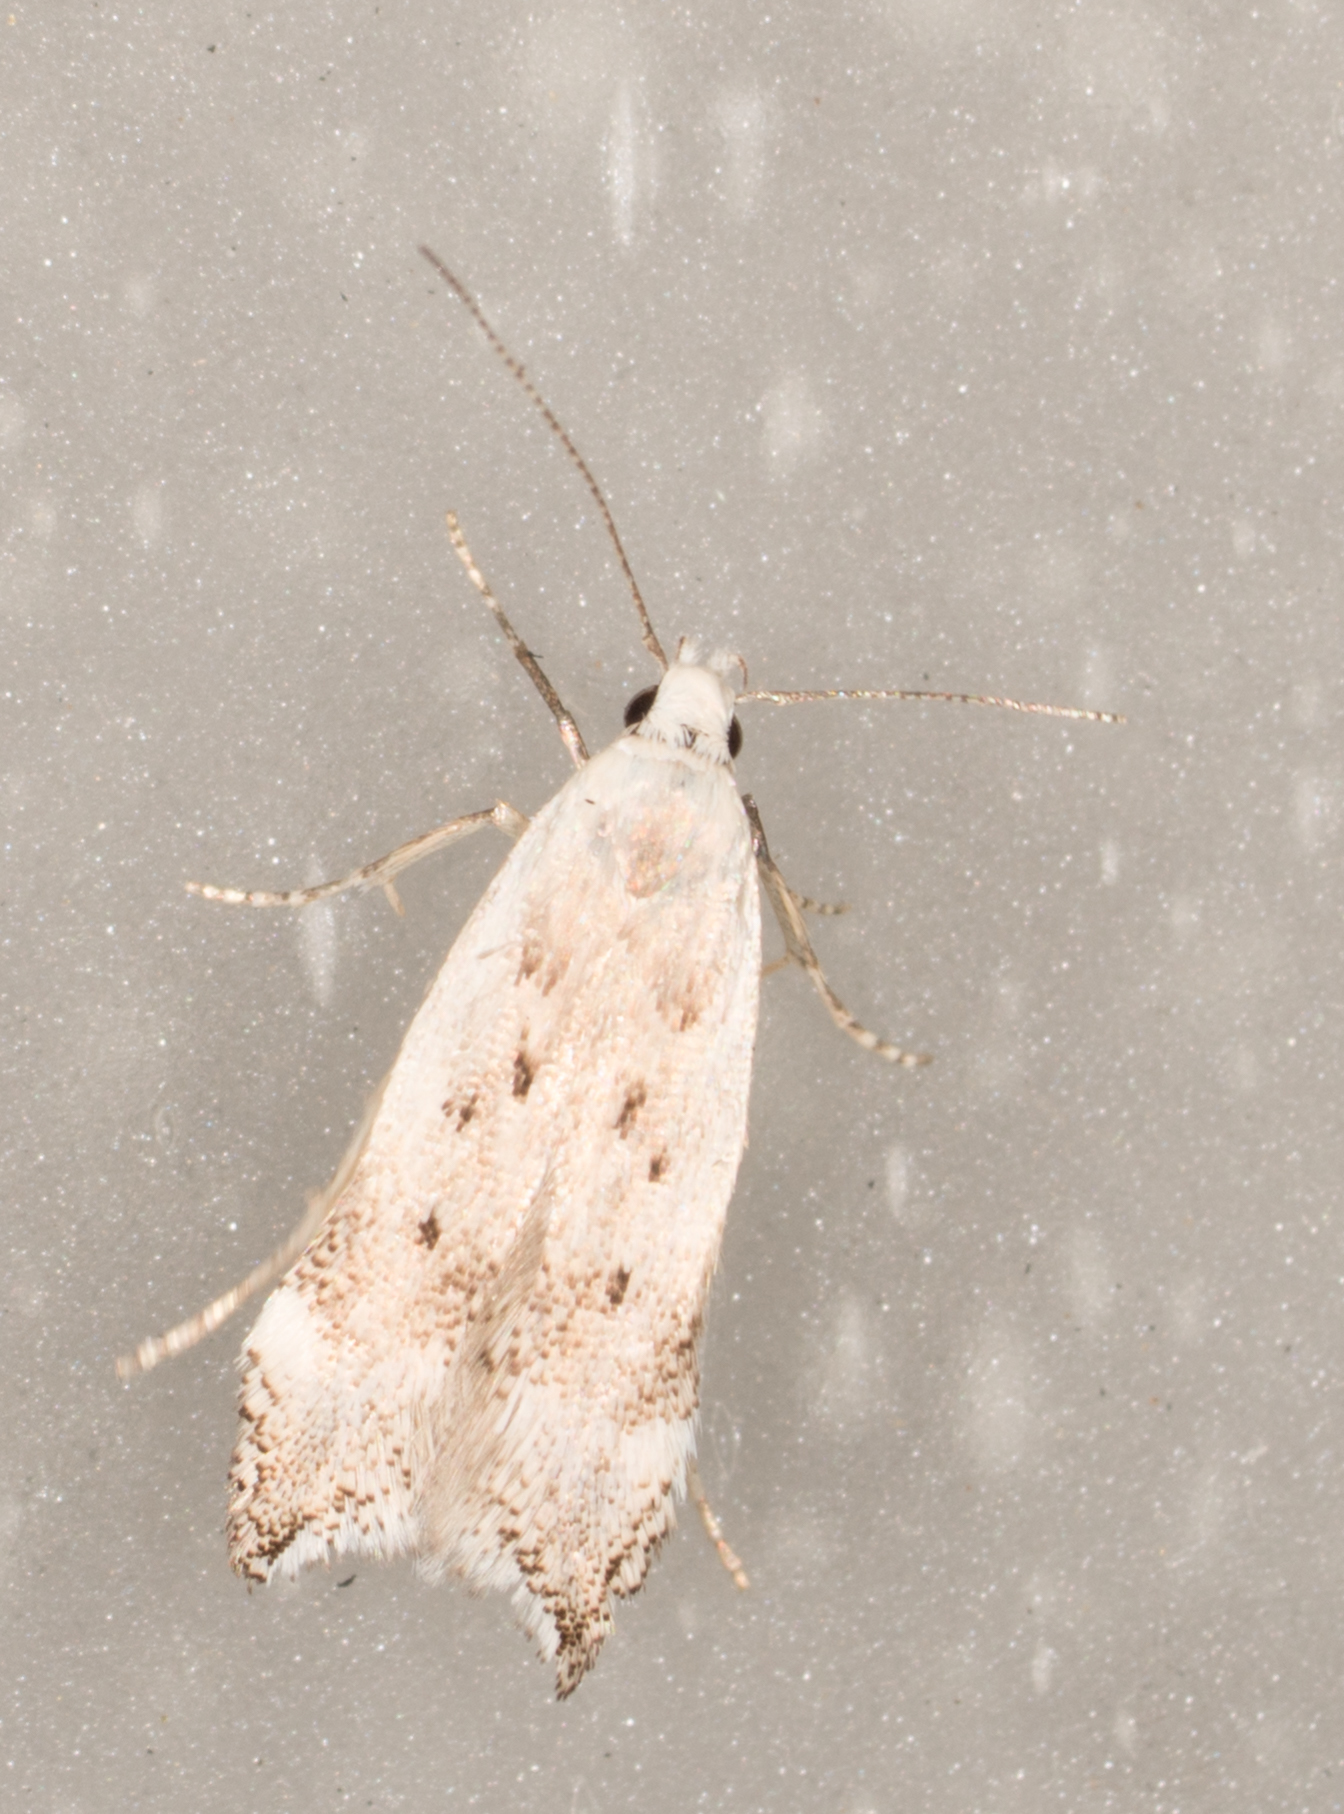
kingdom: Animalia
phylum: Arthropoda
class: Insecta
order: Lepidoptera
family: Gelechiidae
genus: Coleotechnites
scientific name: Coleotechnites invictella
